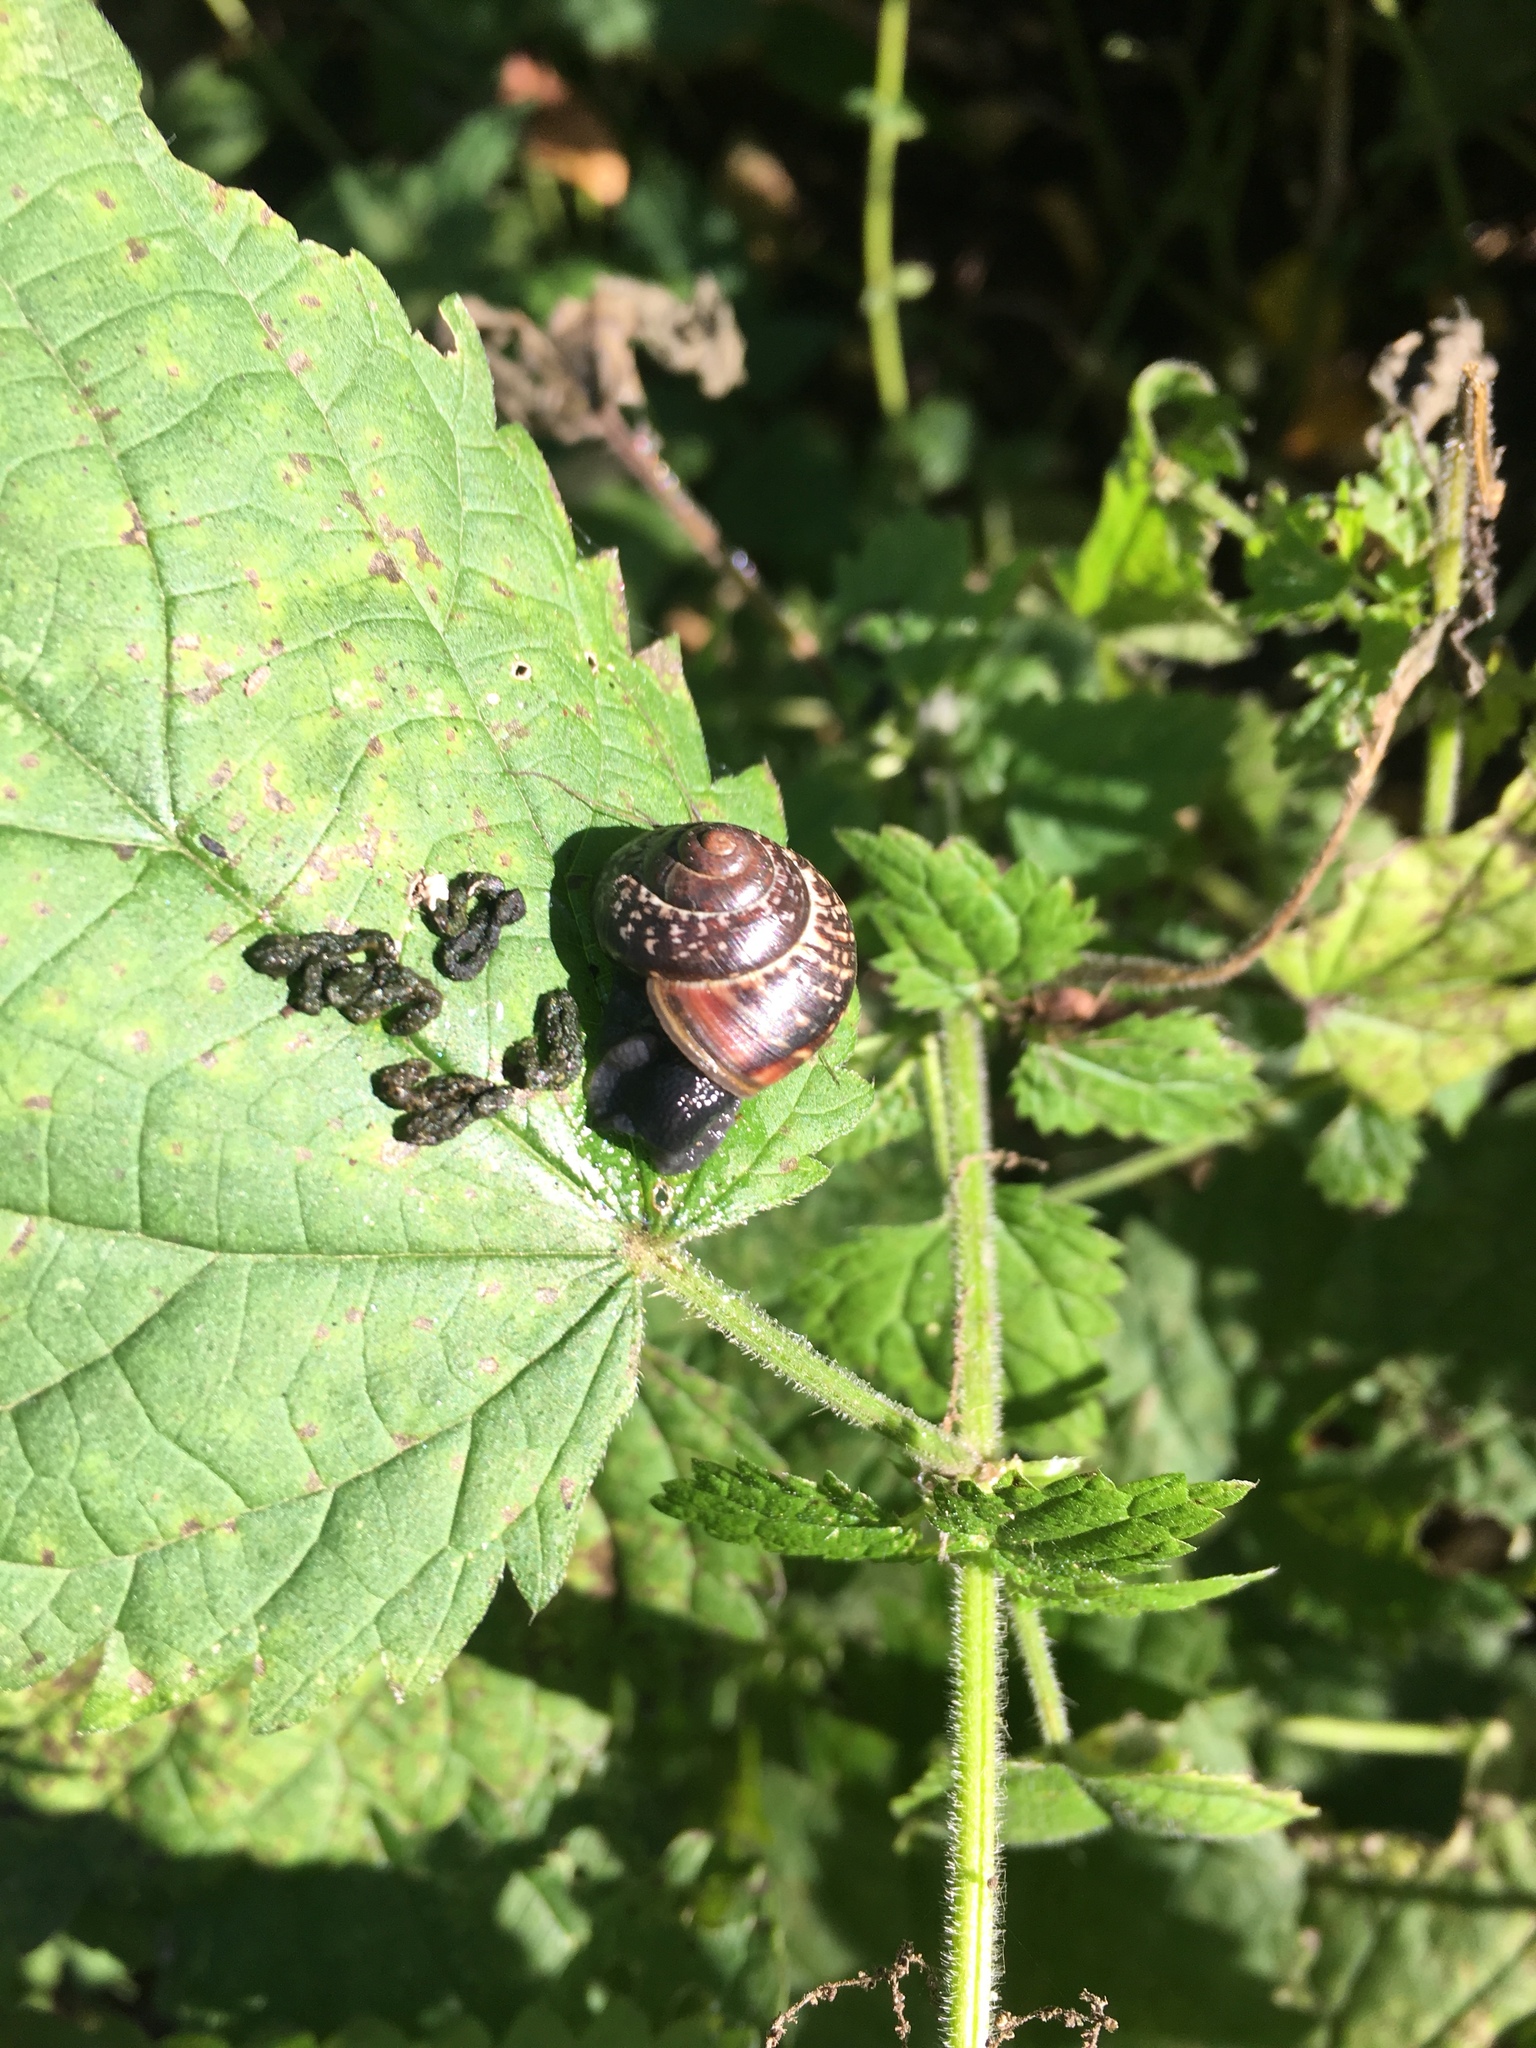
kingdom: Animalia
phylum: Mollusca
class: Gastropoda
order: Stylommatophora
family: Helicidae
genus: Arianta
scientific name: Arianta arbustorum
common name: Copse snail
